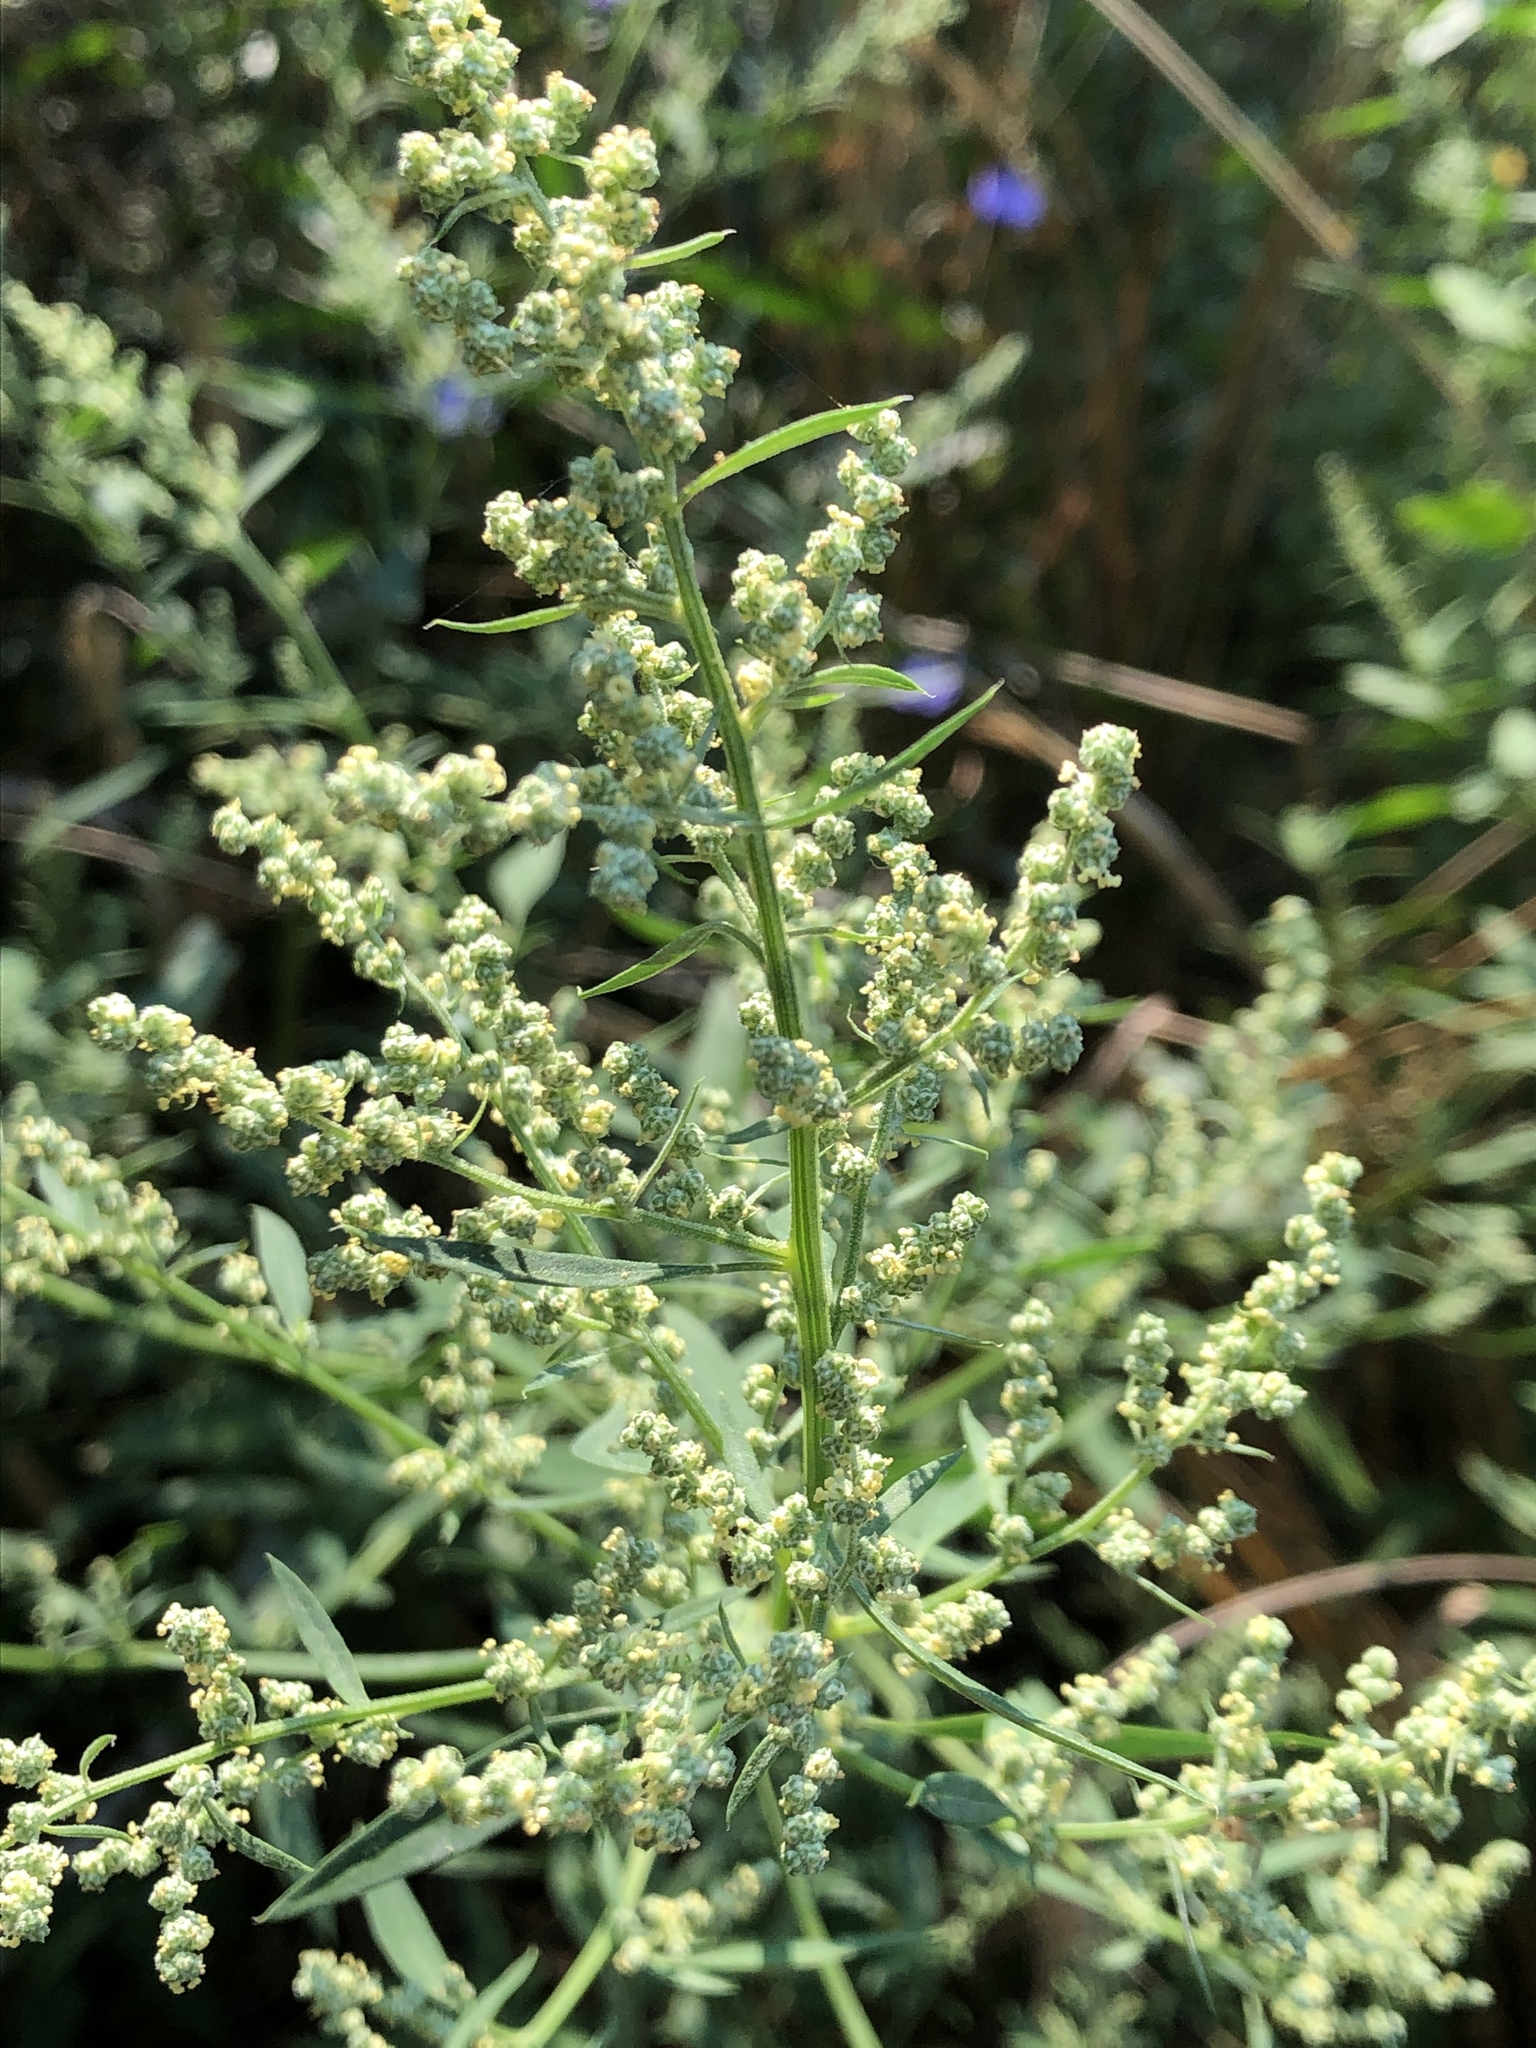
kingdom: Plantae
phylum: Tracheophyta
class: Magnoliopsida
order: Caryophyllales
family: Amaranthaceae
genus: Chenopodium
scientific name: Chenopodium album
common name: Fat-hen
